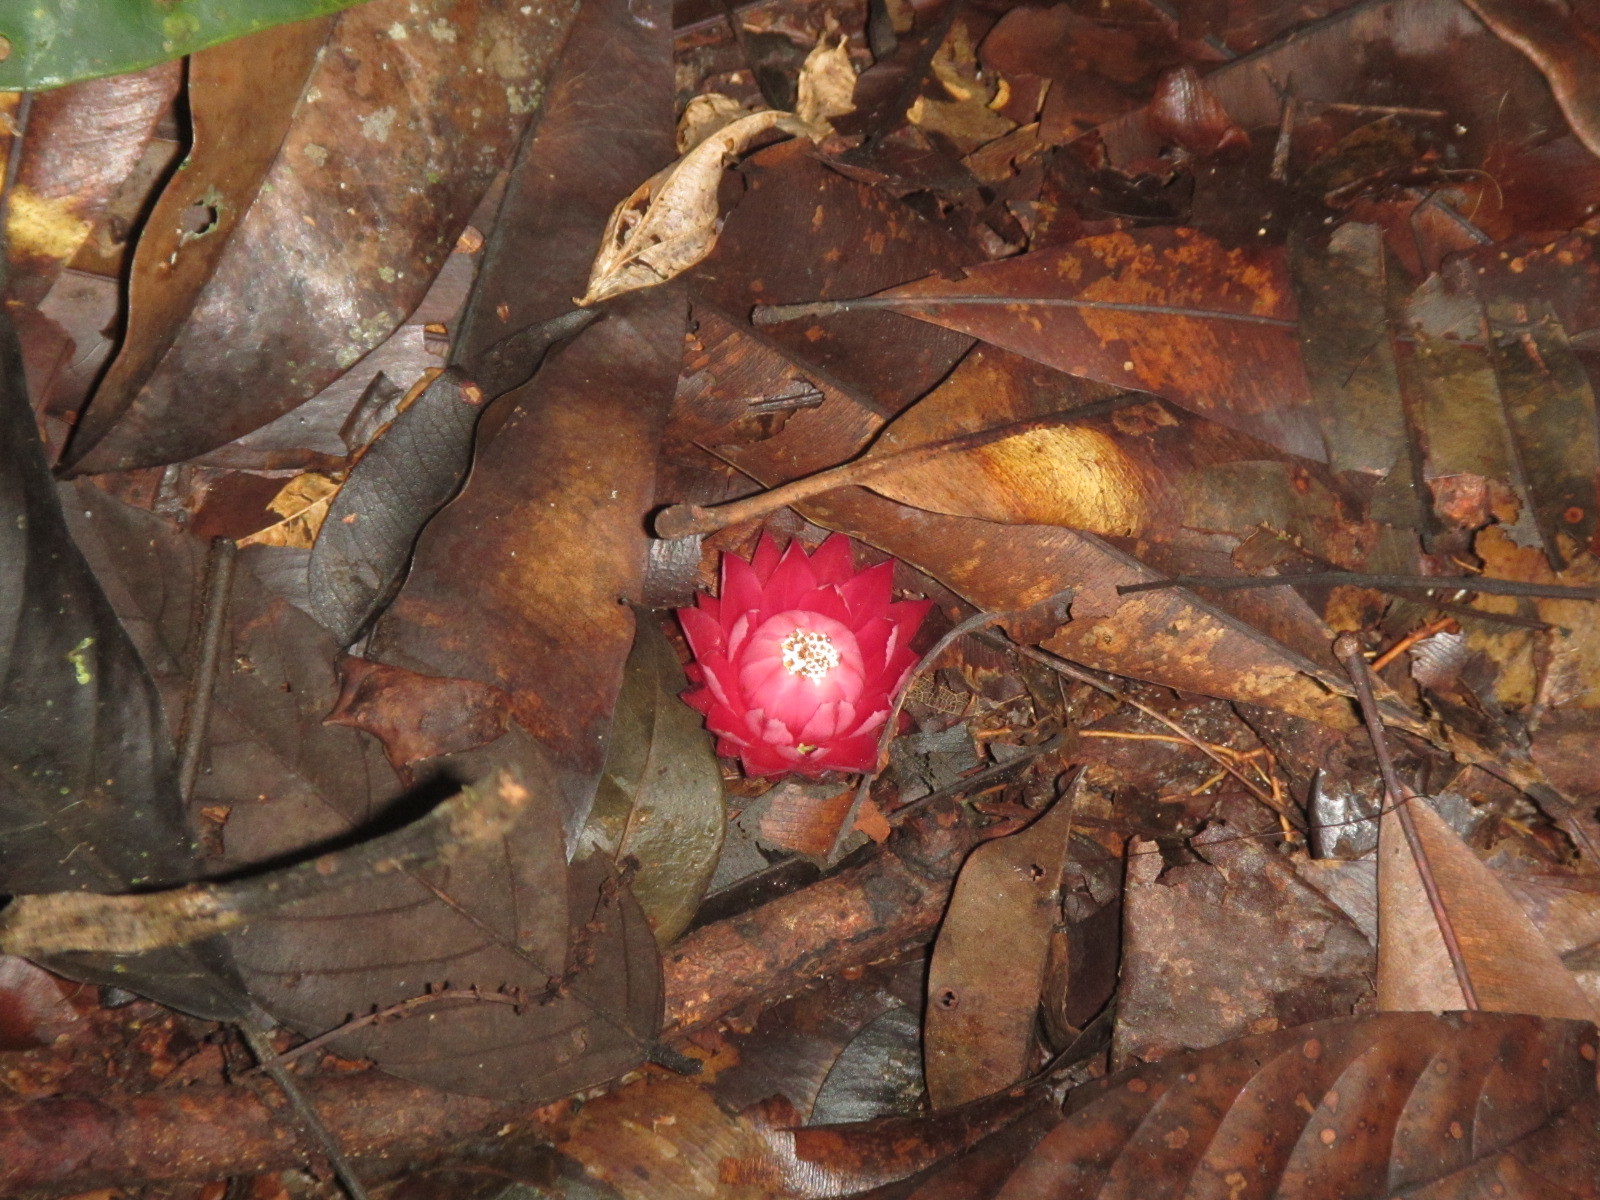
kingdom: Plantae
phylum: Tracheophyta
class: Magnoliopsida
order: Santalales
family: Balanophoraceae
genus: Thonningia
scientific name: Thonningia sanguinea
